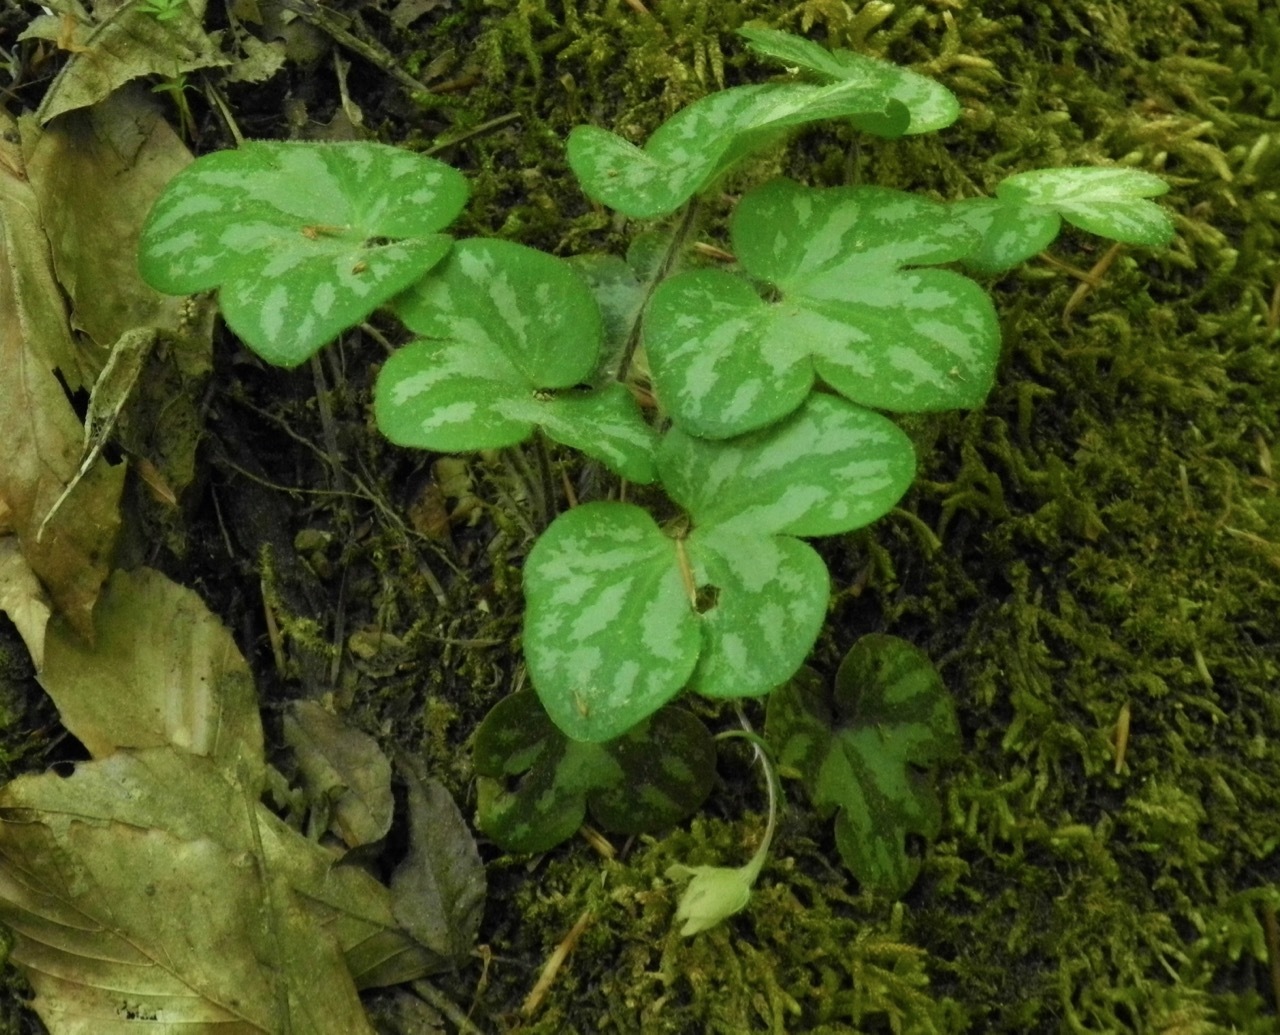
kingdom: Plantae
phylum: Tracheophyta
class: Magnoliopsida
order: Ranunculales
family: Ranunculaceae
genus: Hepatica
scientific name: Hepatica americana
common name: American hepatica
